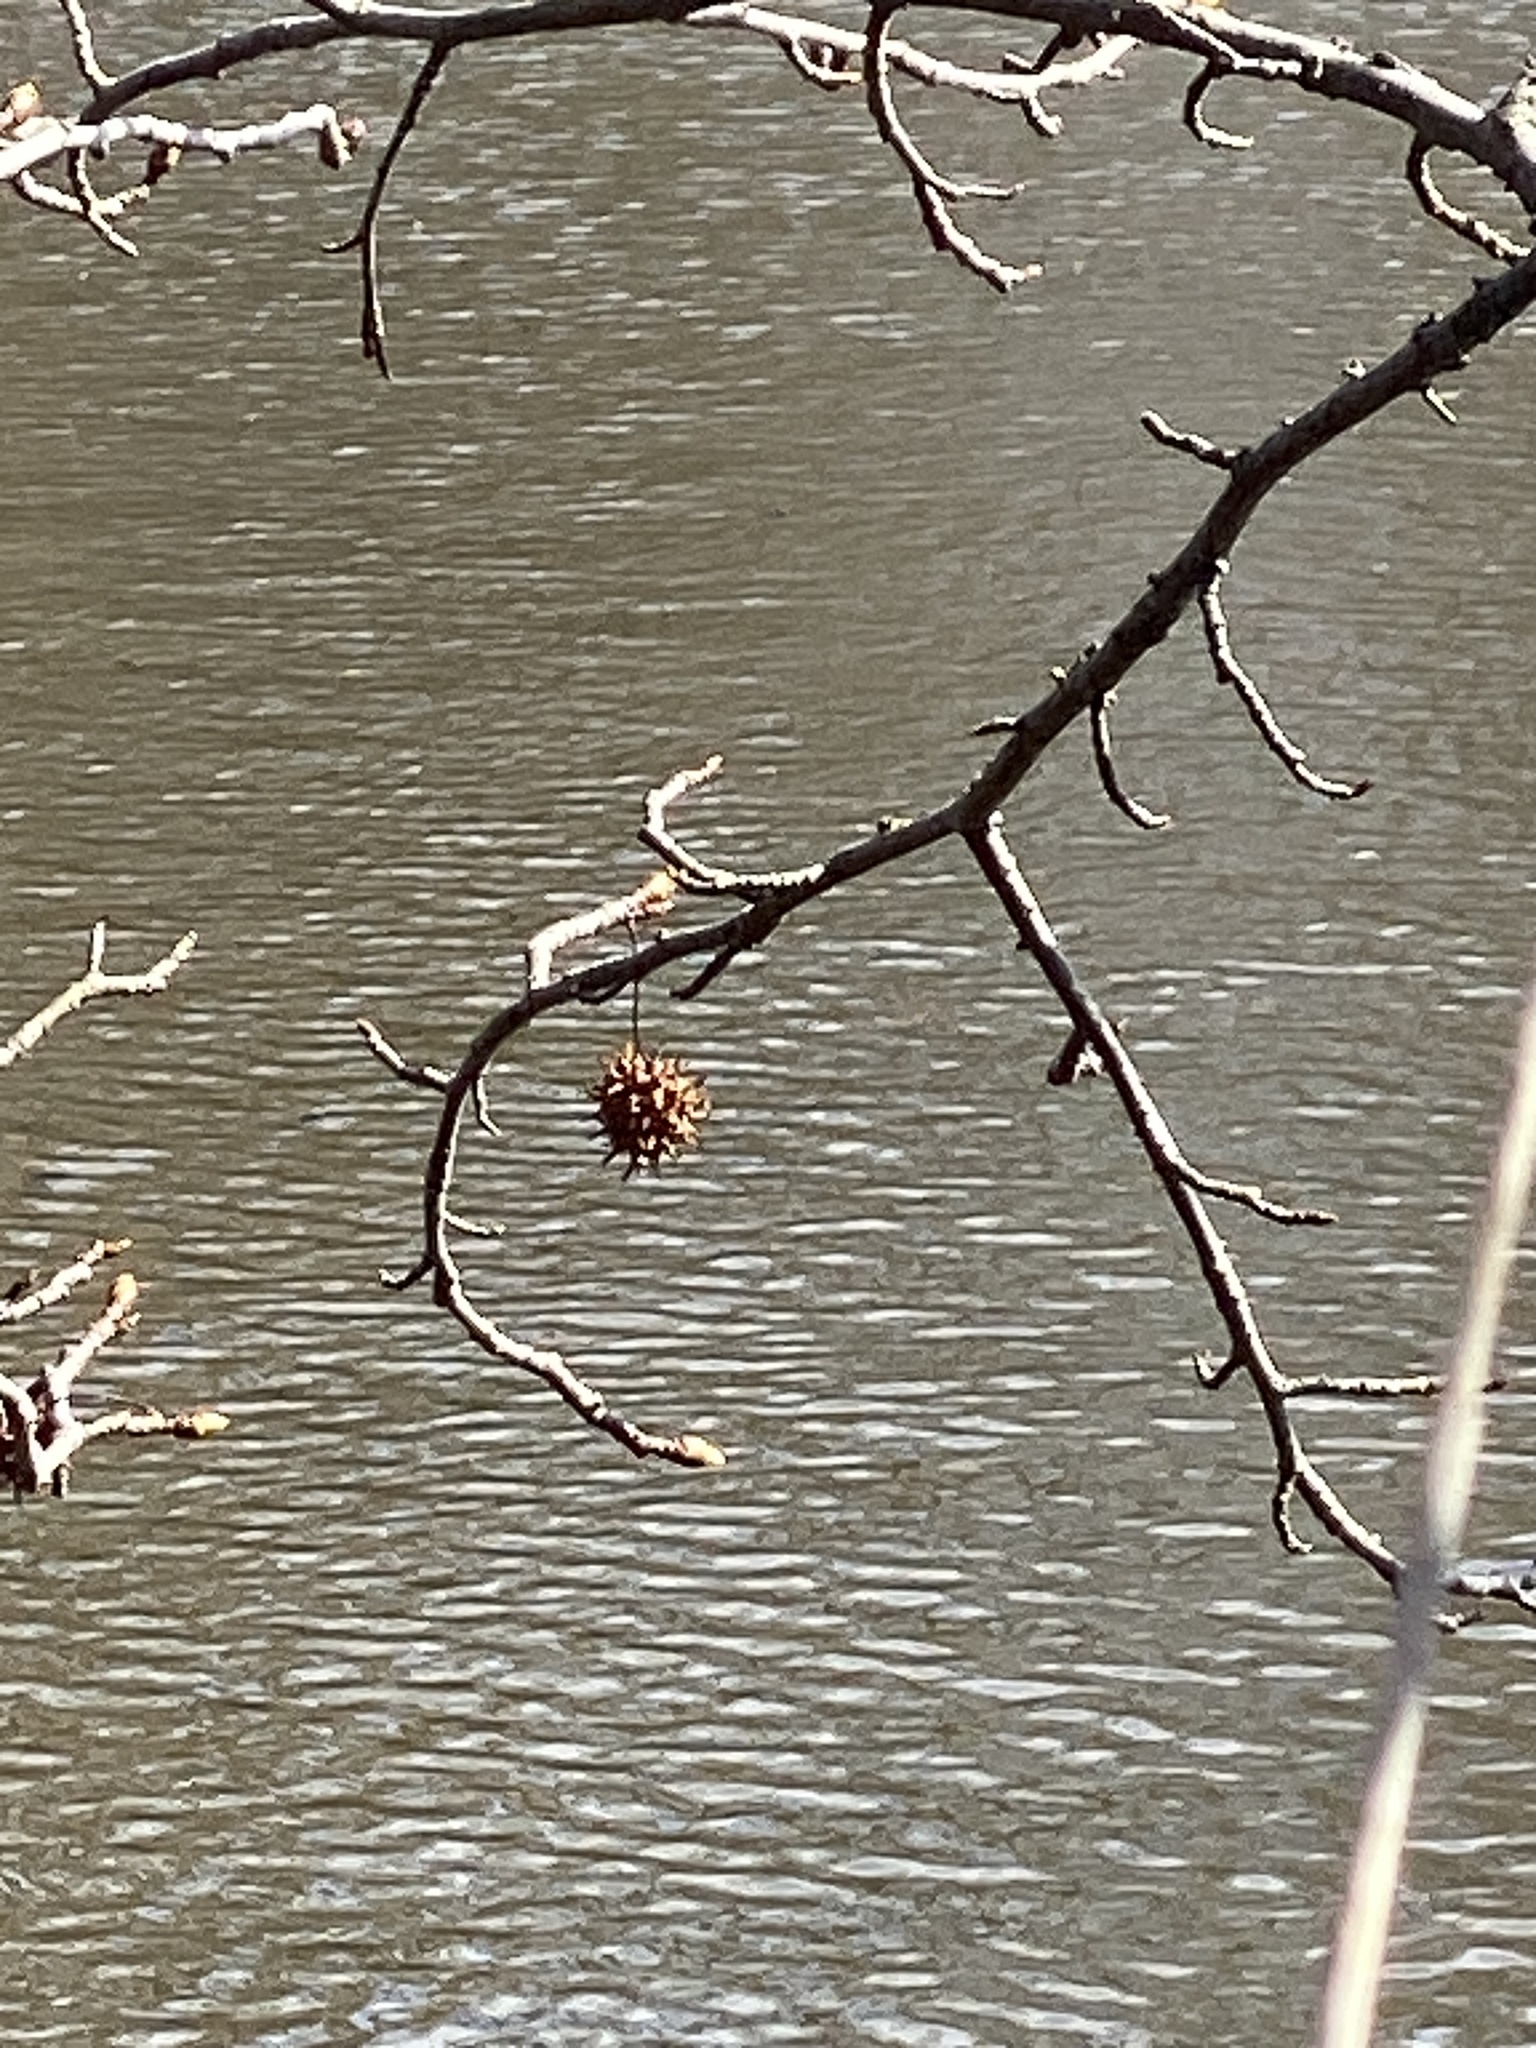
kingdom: Plantae
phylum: Tracheophyta
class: Magnoliopsida
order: Saxifragales
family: Altingiaceae
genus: Liquidambar
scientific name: Liquidambar styraciflua
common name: Sweet gum
